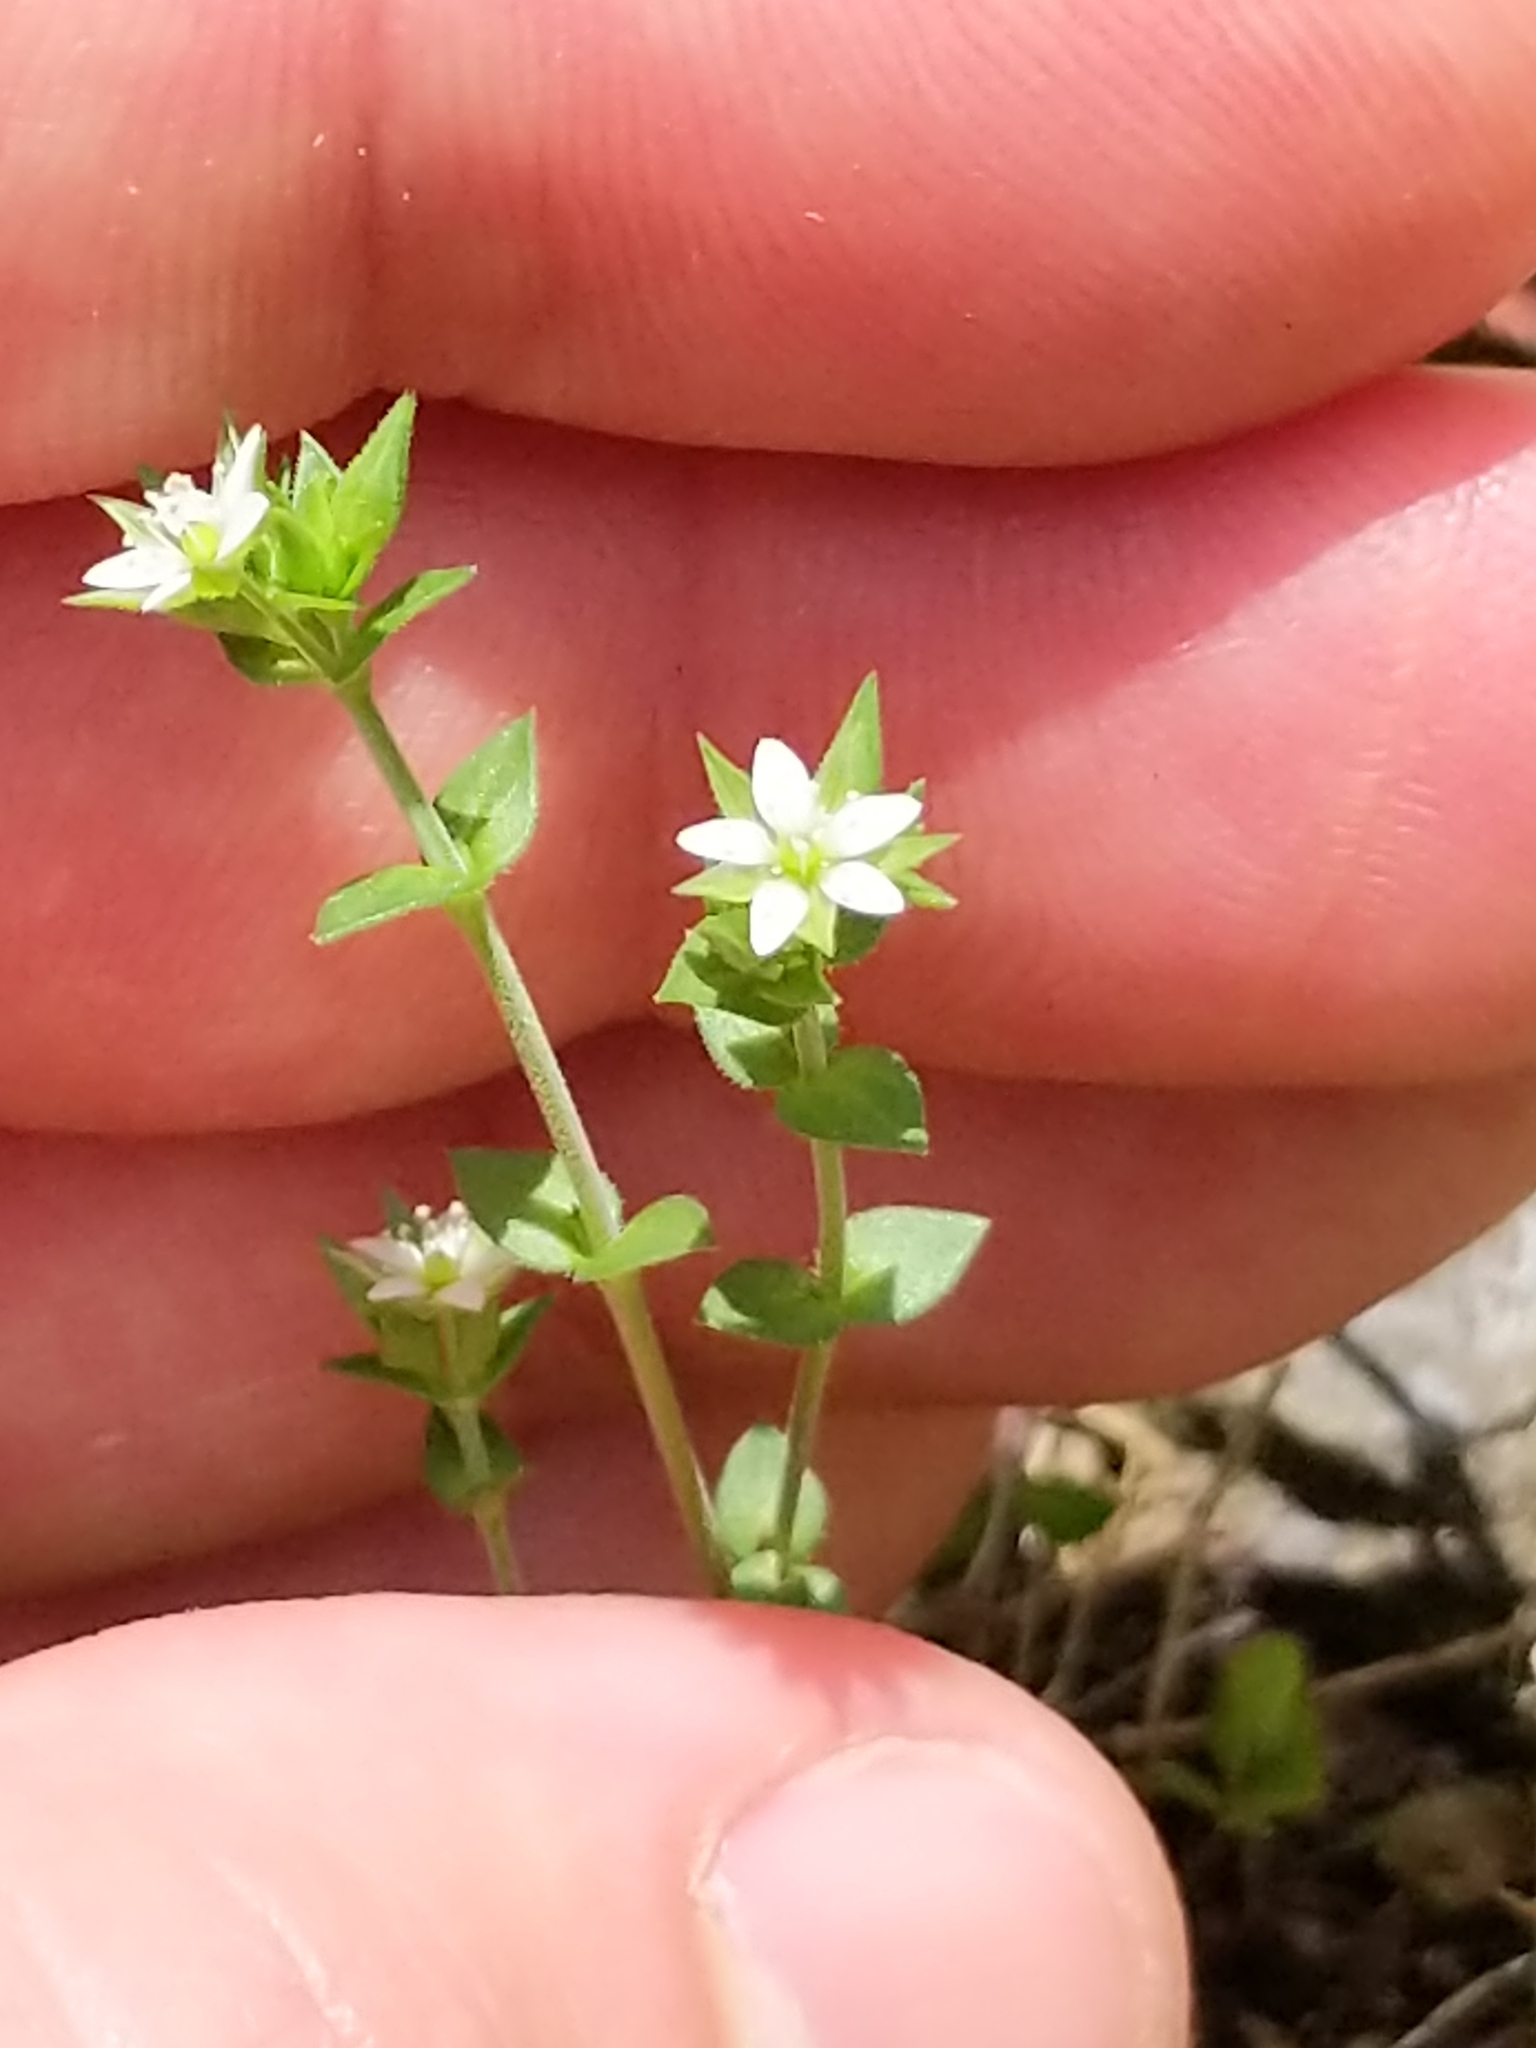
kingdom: Plantae
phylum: Tracheophyta
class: Magnoliopsida
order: Caryophyllales
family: Caryophyllaceae
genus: Arenaria
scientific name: Arenaria serpyllifolia
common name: Thyme-leaved sandwort
